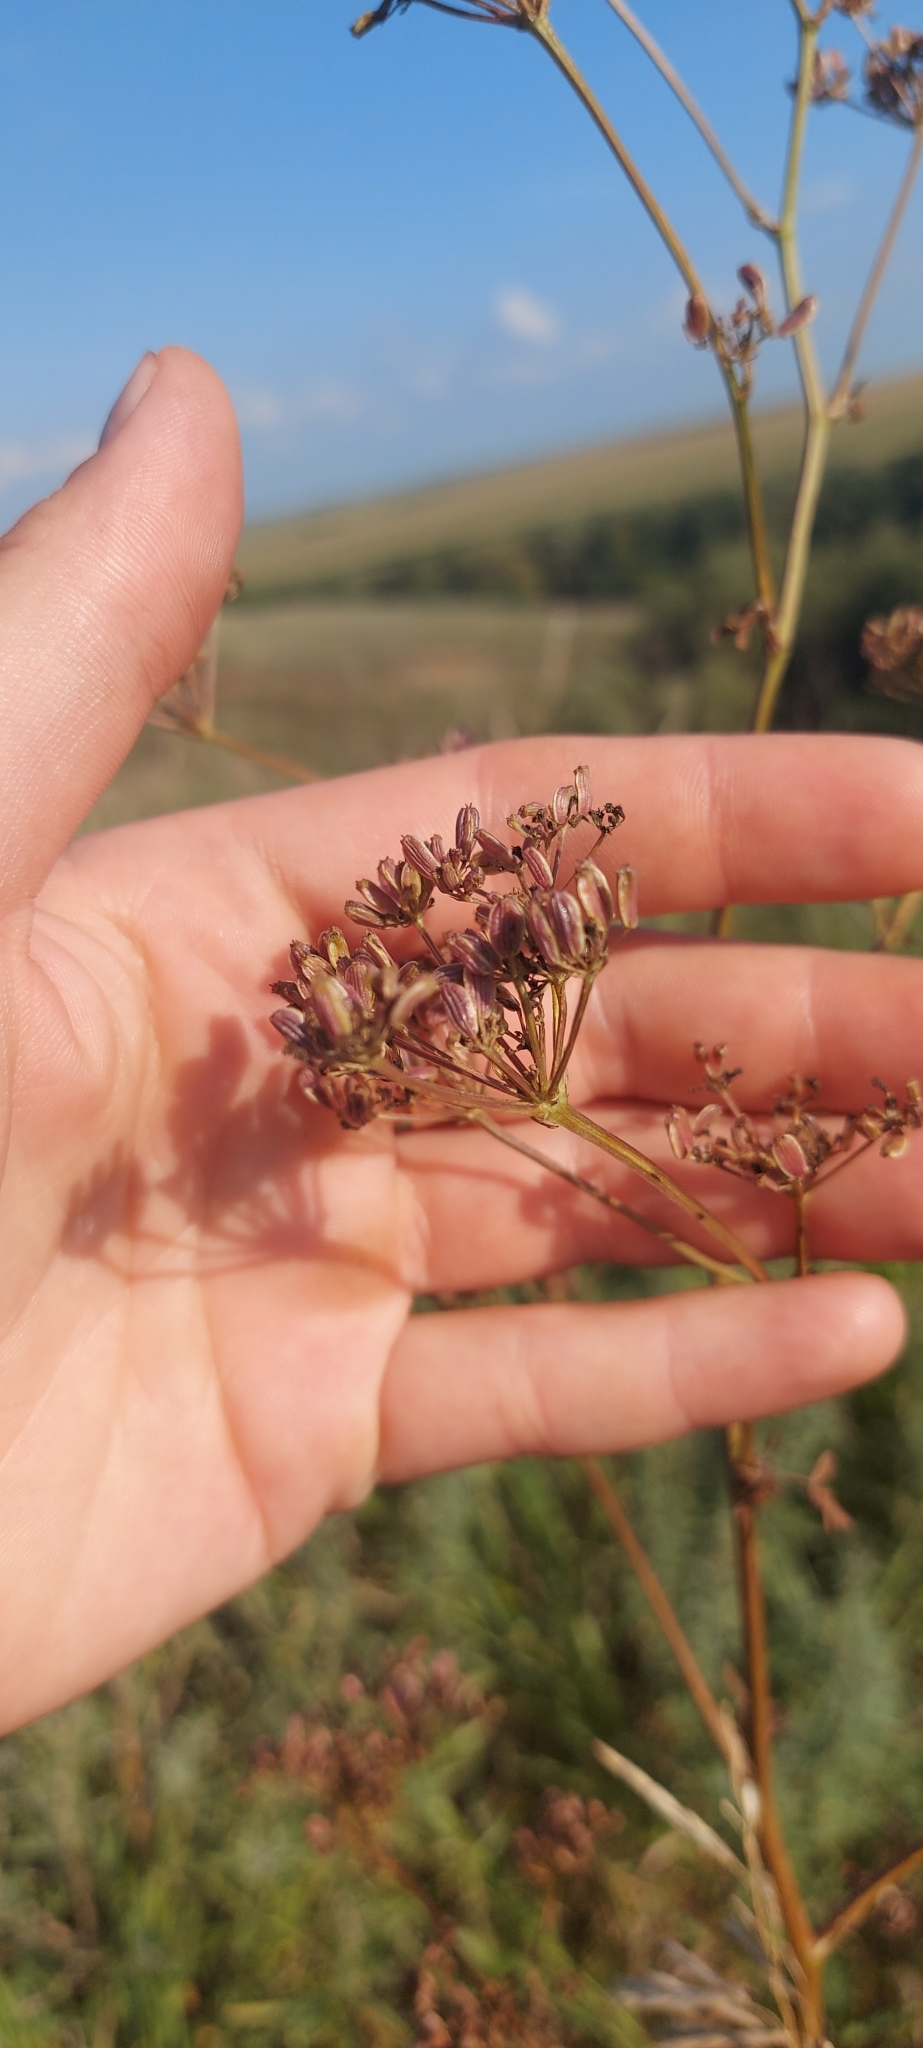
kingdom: Plantae
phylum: Tracheophyta
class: Magnoliopsida
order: Apiales
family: Apiaceae
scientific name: Apiaceae
